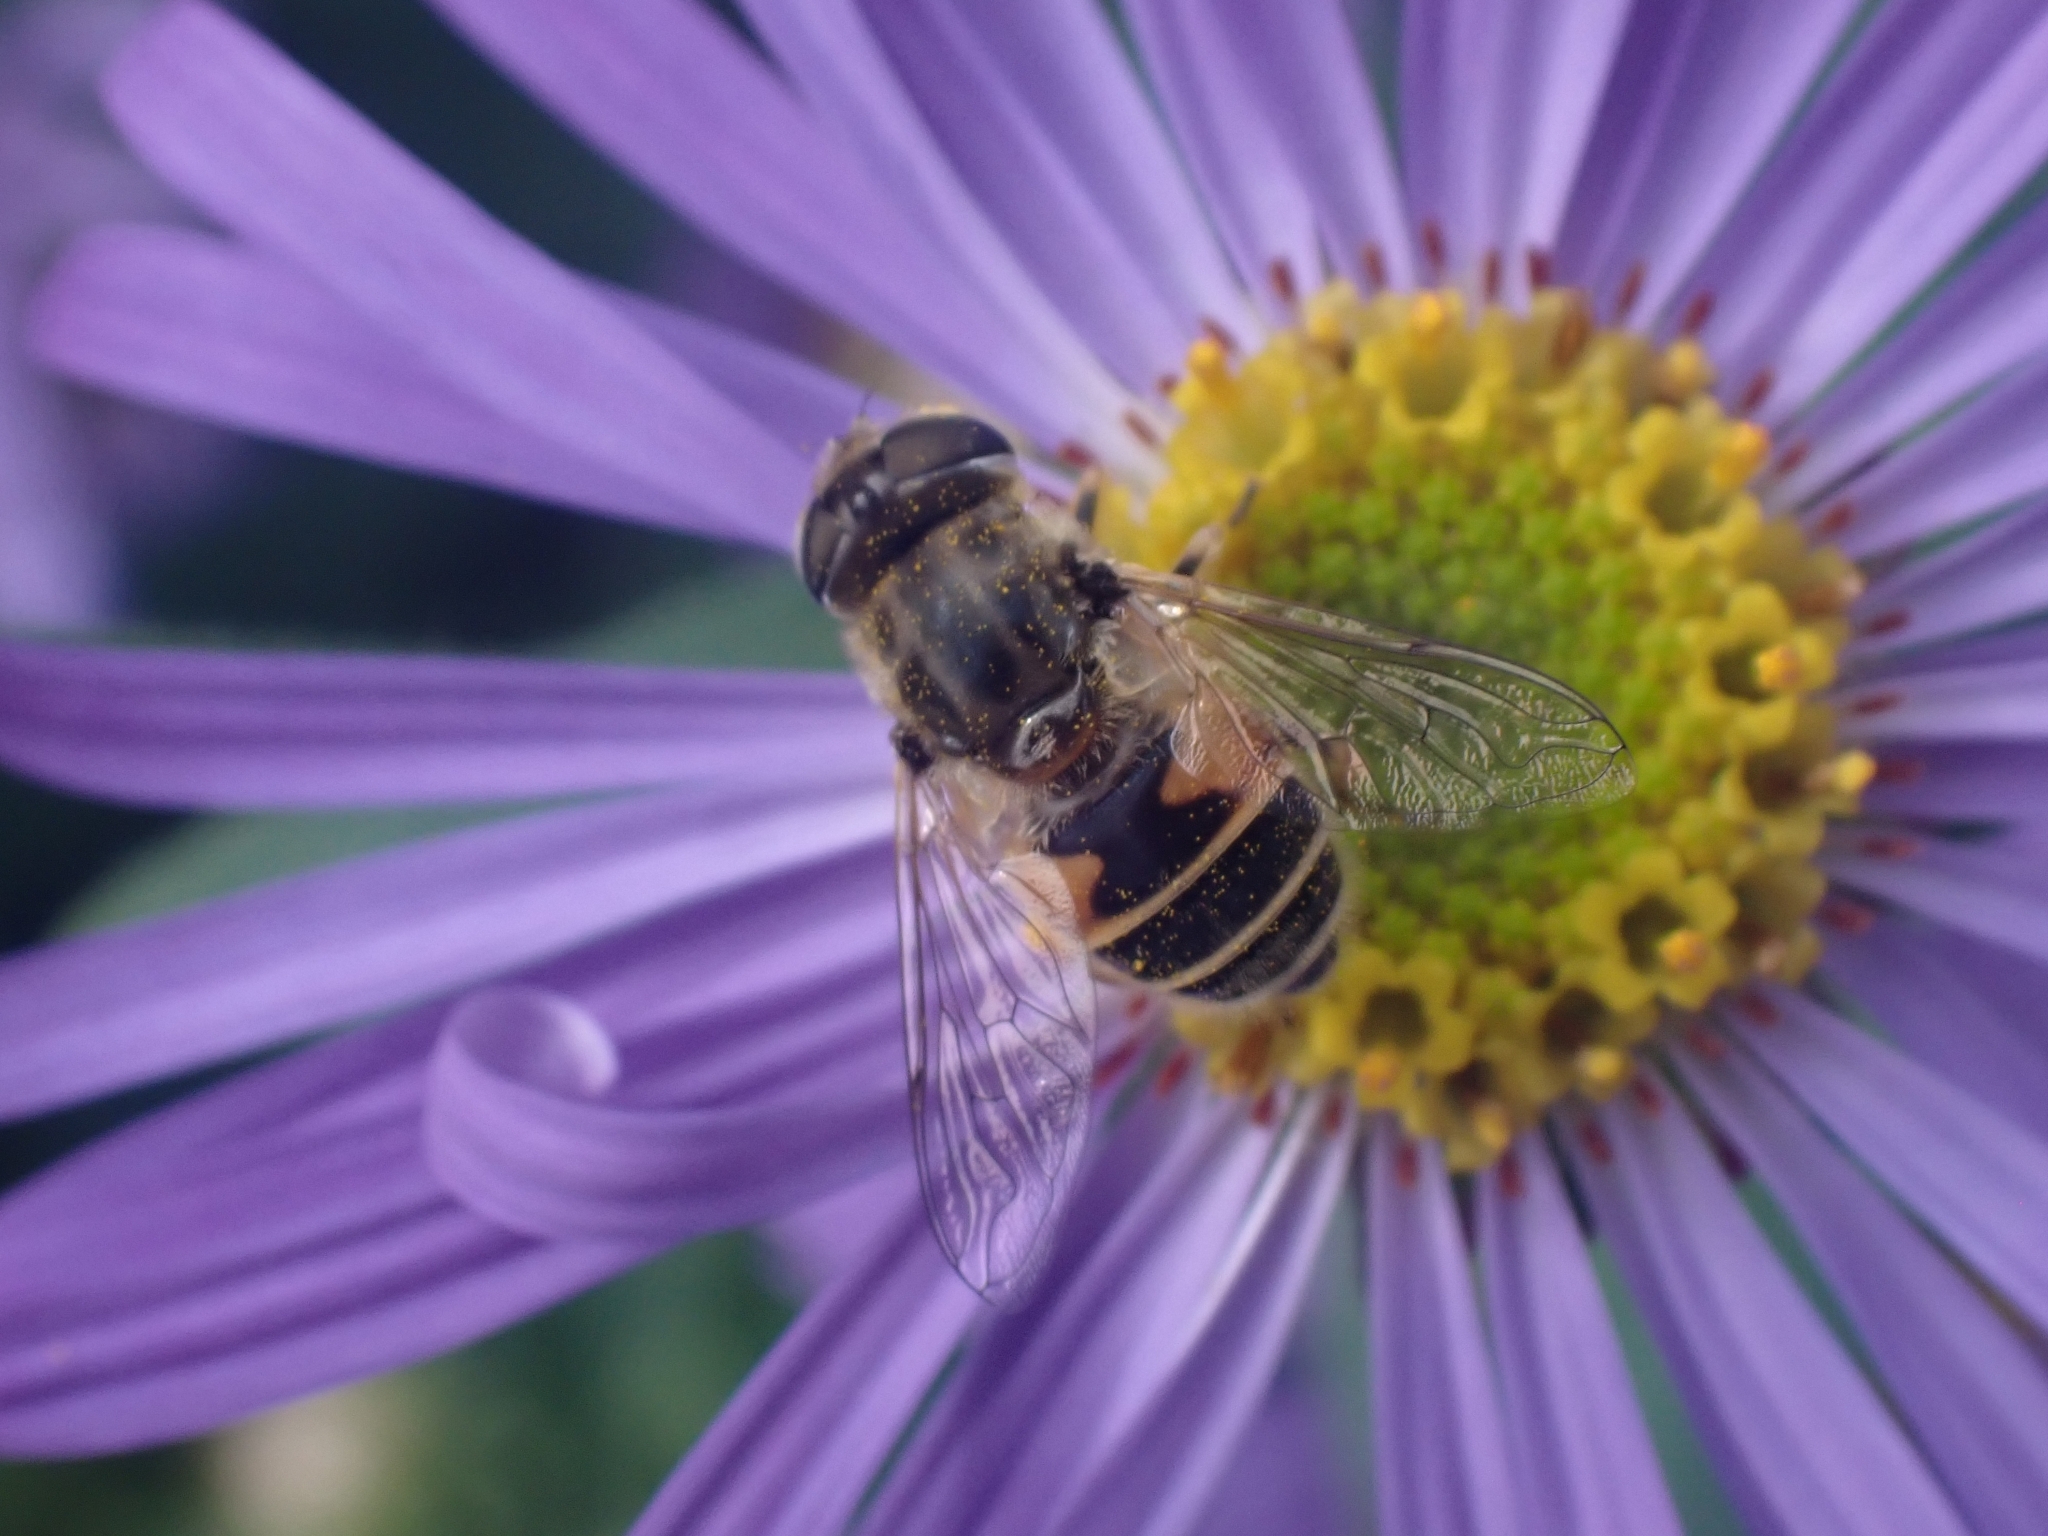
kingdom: Animalia
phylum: Arthropoda
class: Insecta
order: Diptera
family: Syrphidae
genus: Eristalis
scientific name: Eristalis arbustorum
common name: Hover fly
